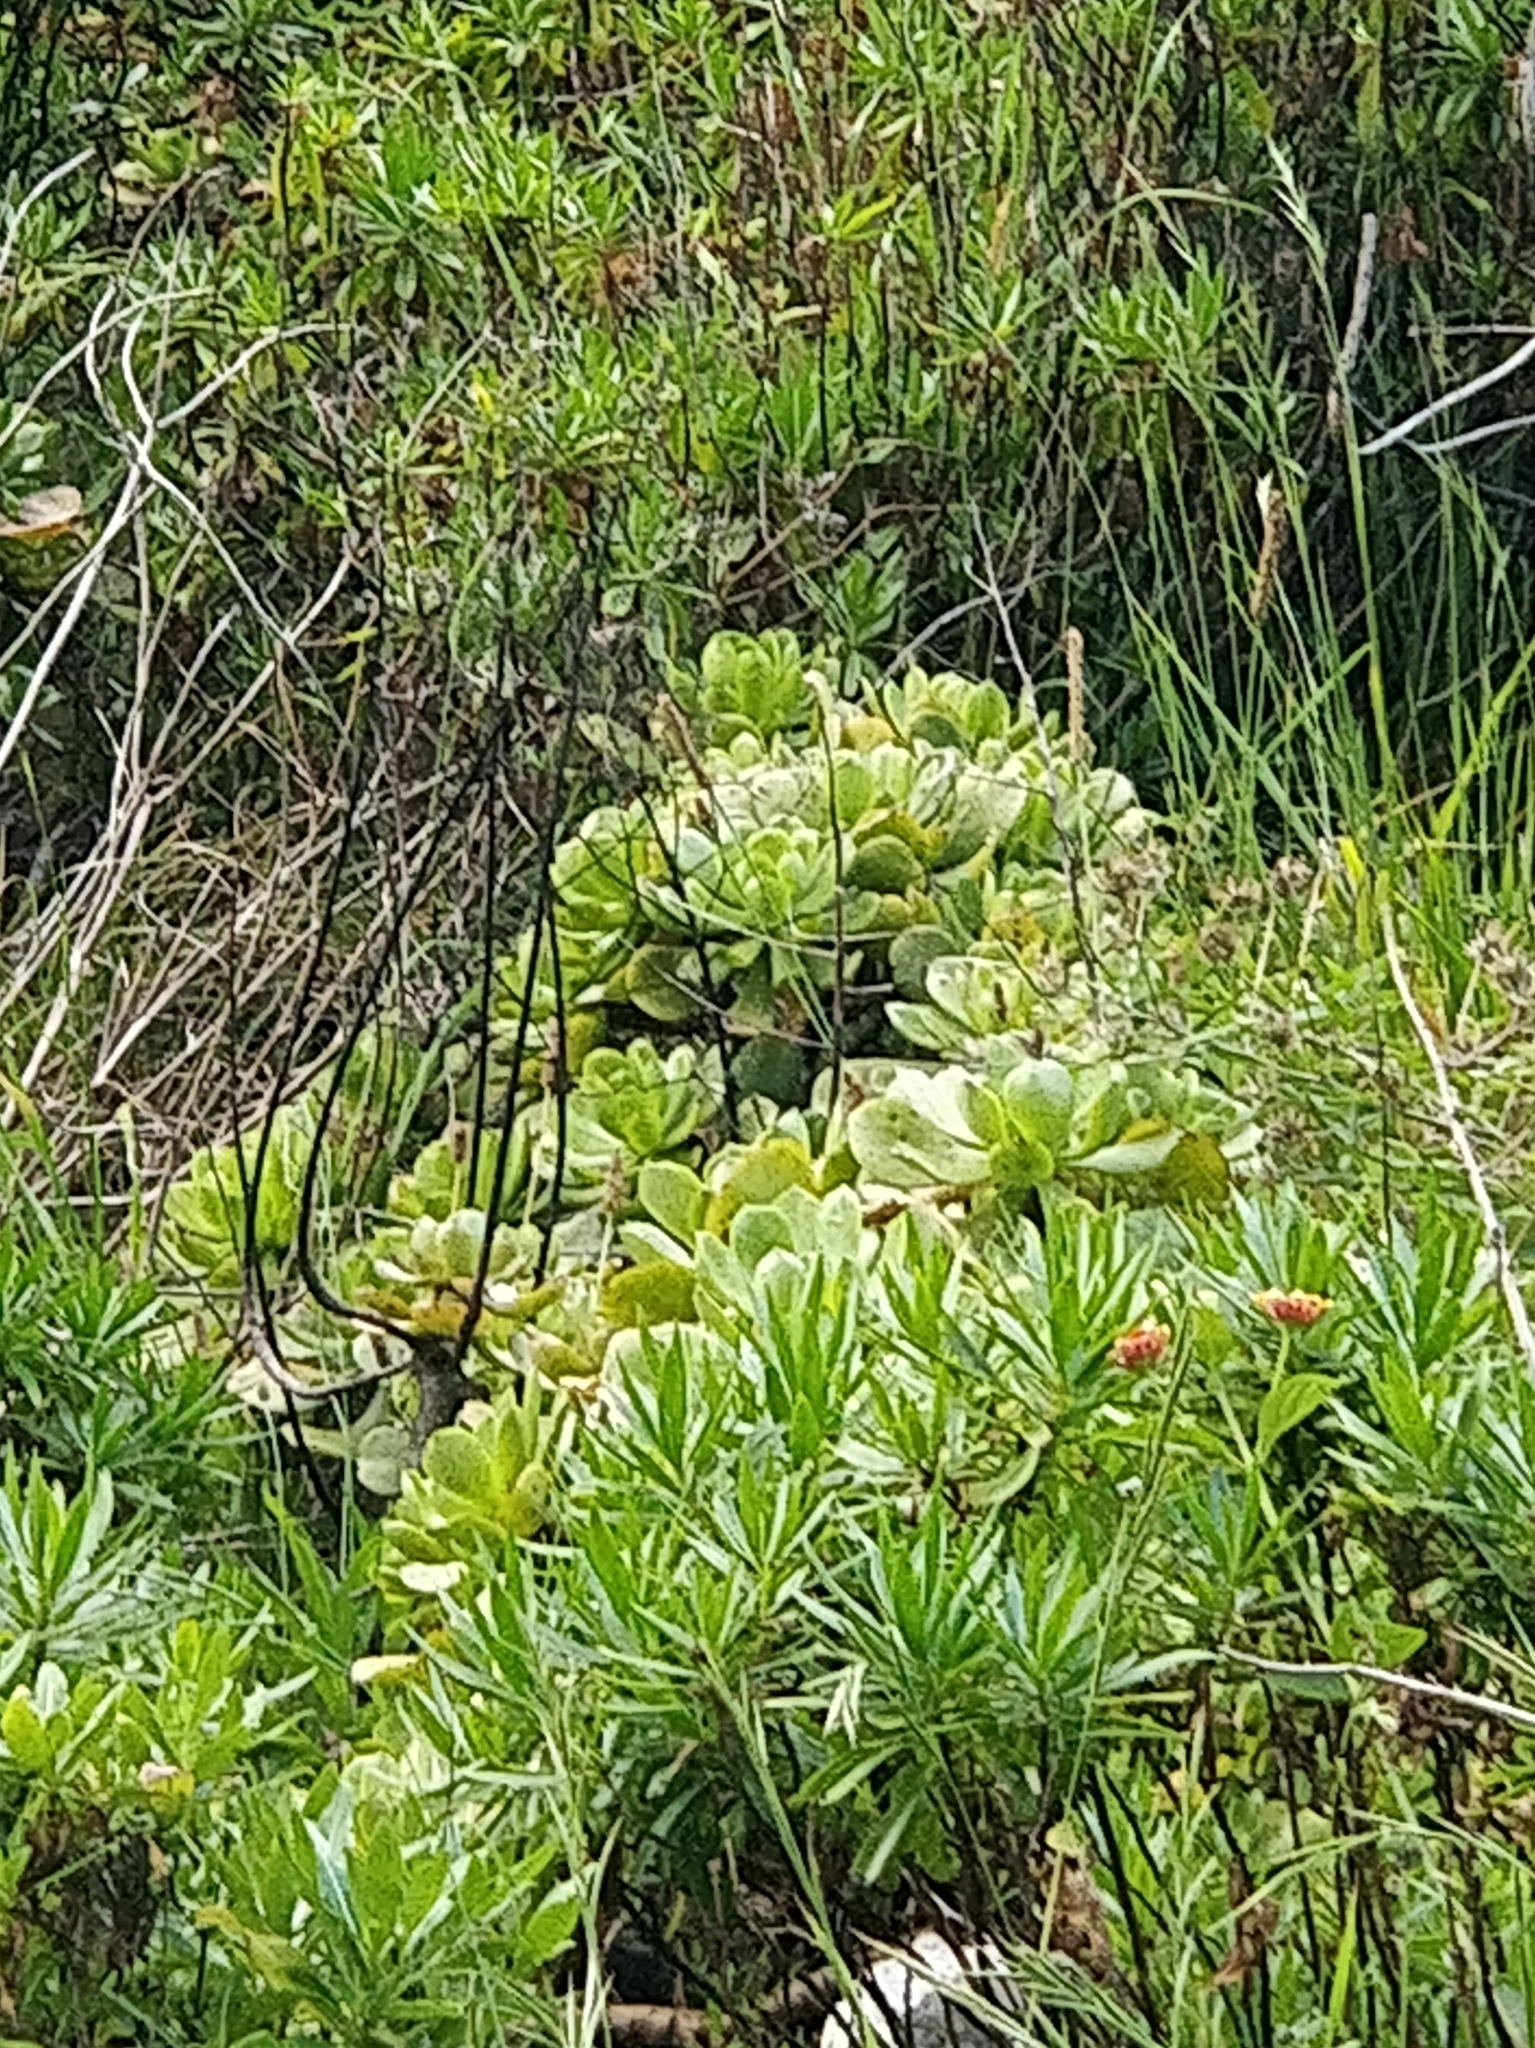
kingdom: Plantae
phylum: Tracheophyta
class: Magnoliopsida
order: Saxifragales
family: Crassulaceae
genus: Aeonium
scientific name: Aeonium glutinosum
